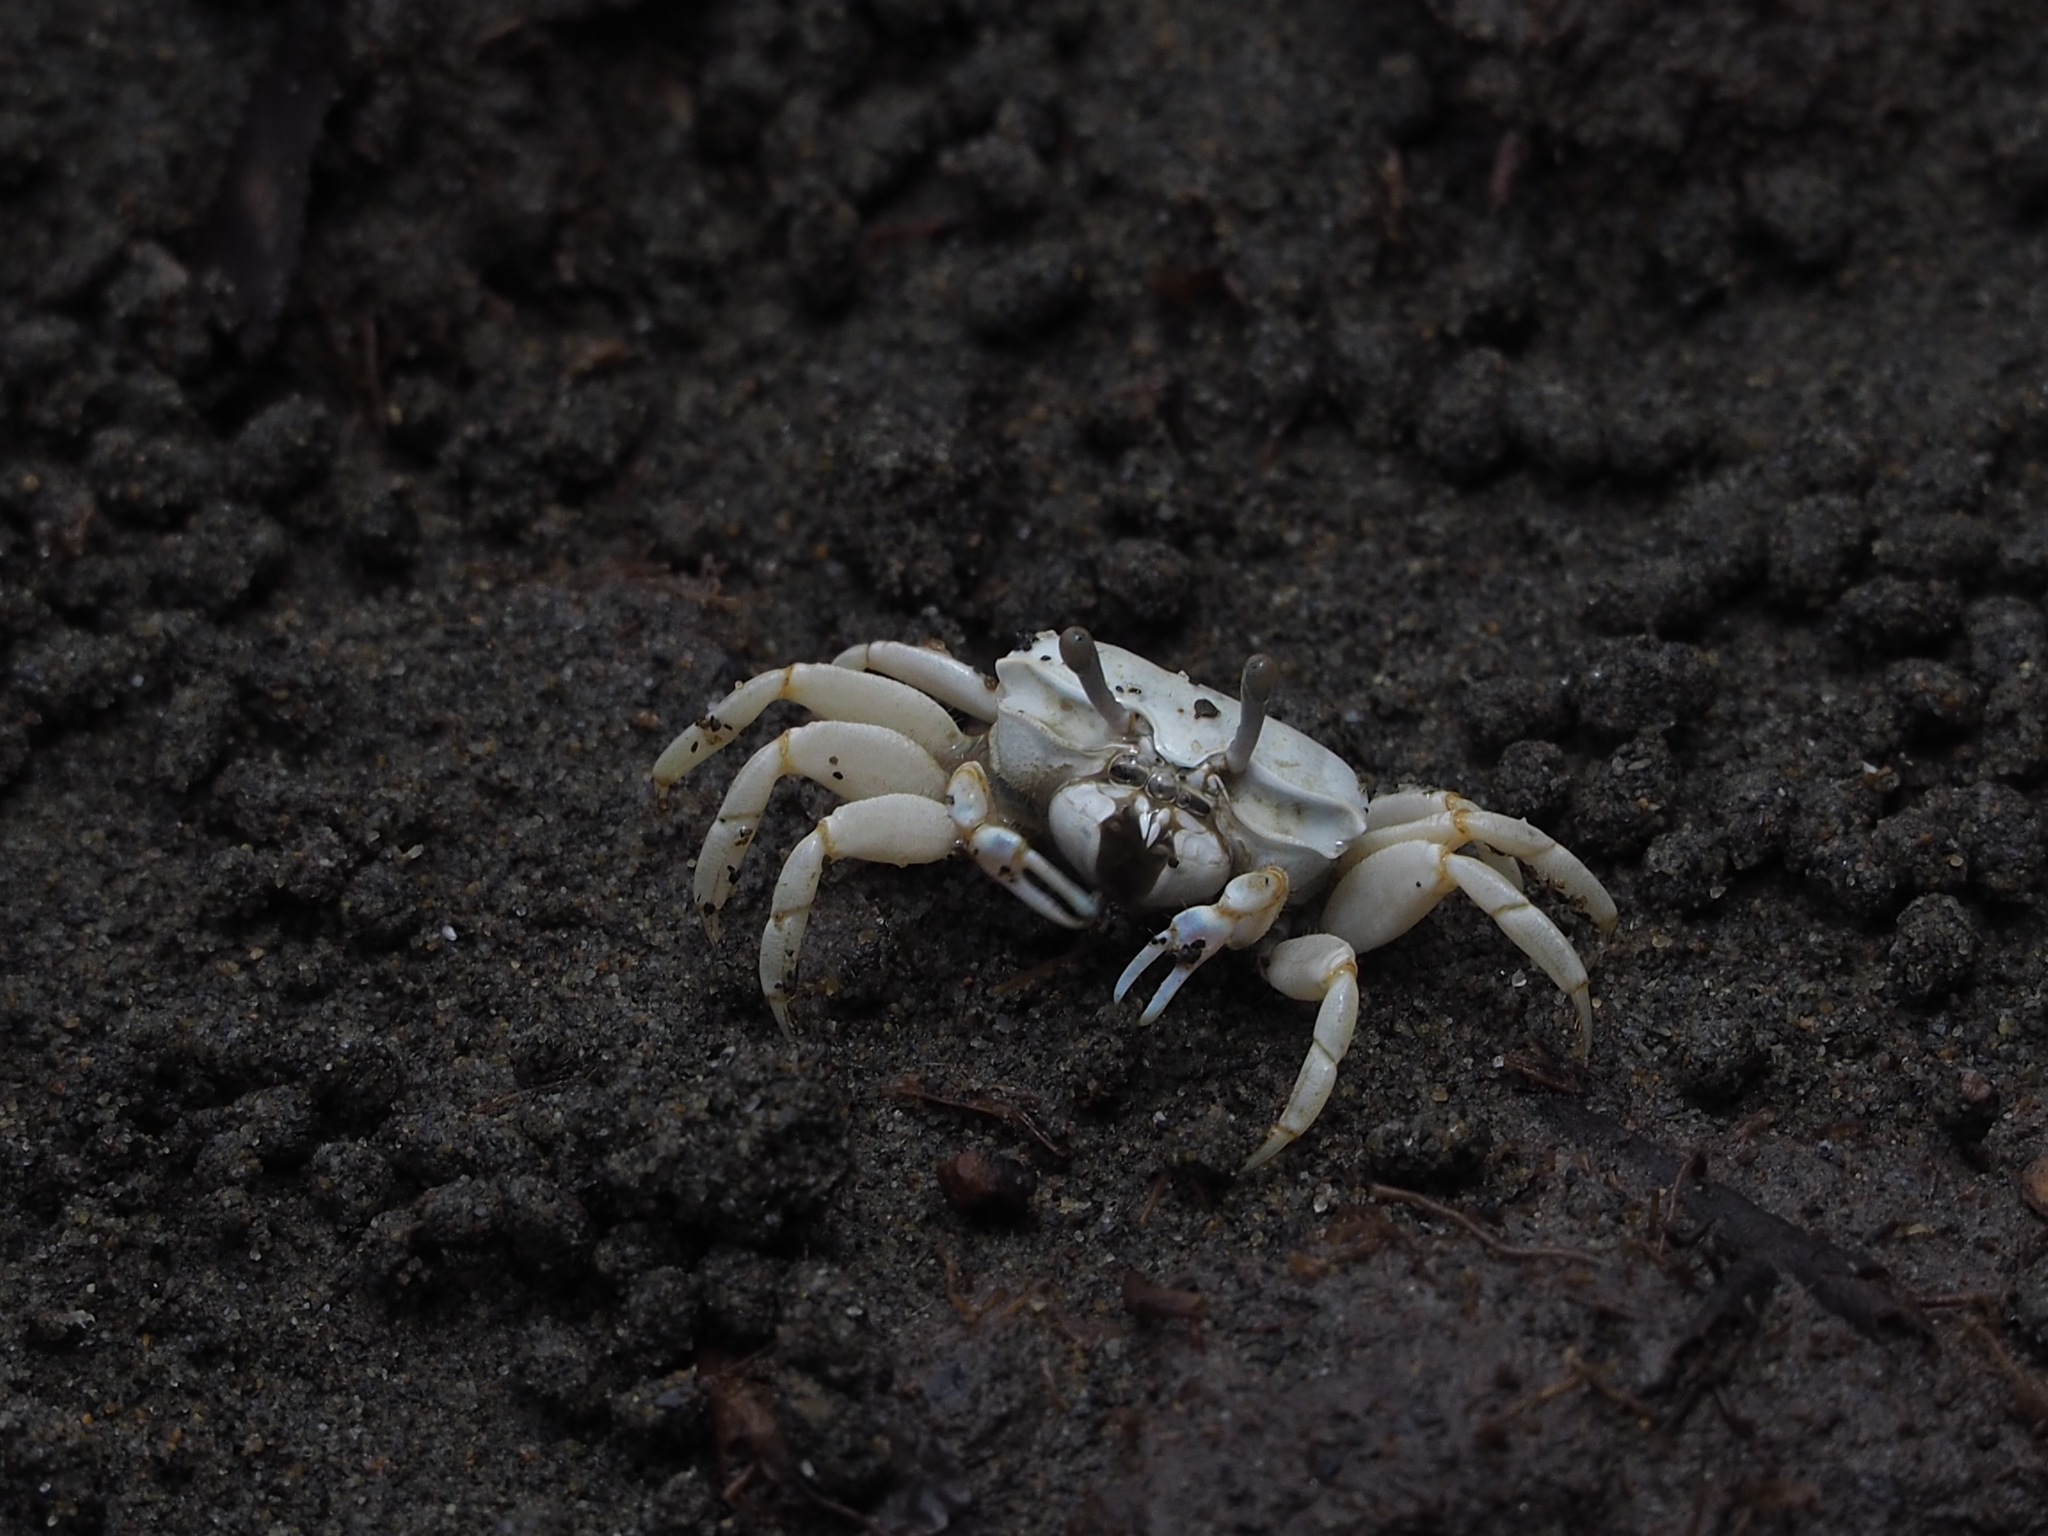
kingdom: Animalia
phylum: Arthropoda
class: Malacostraca
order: Decapoda
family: Ocypodidae
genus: Austruca
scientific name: Austruca lactea
